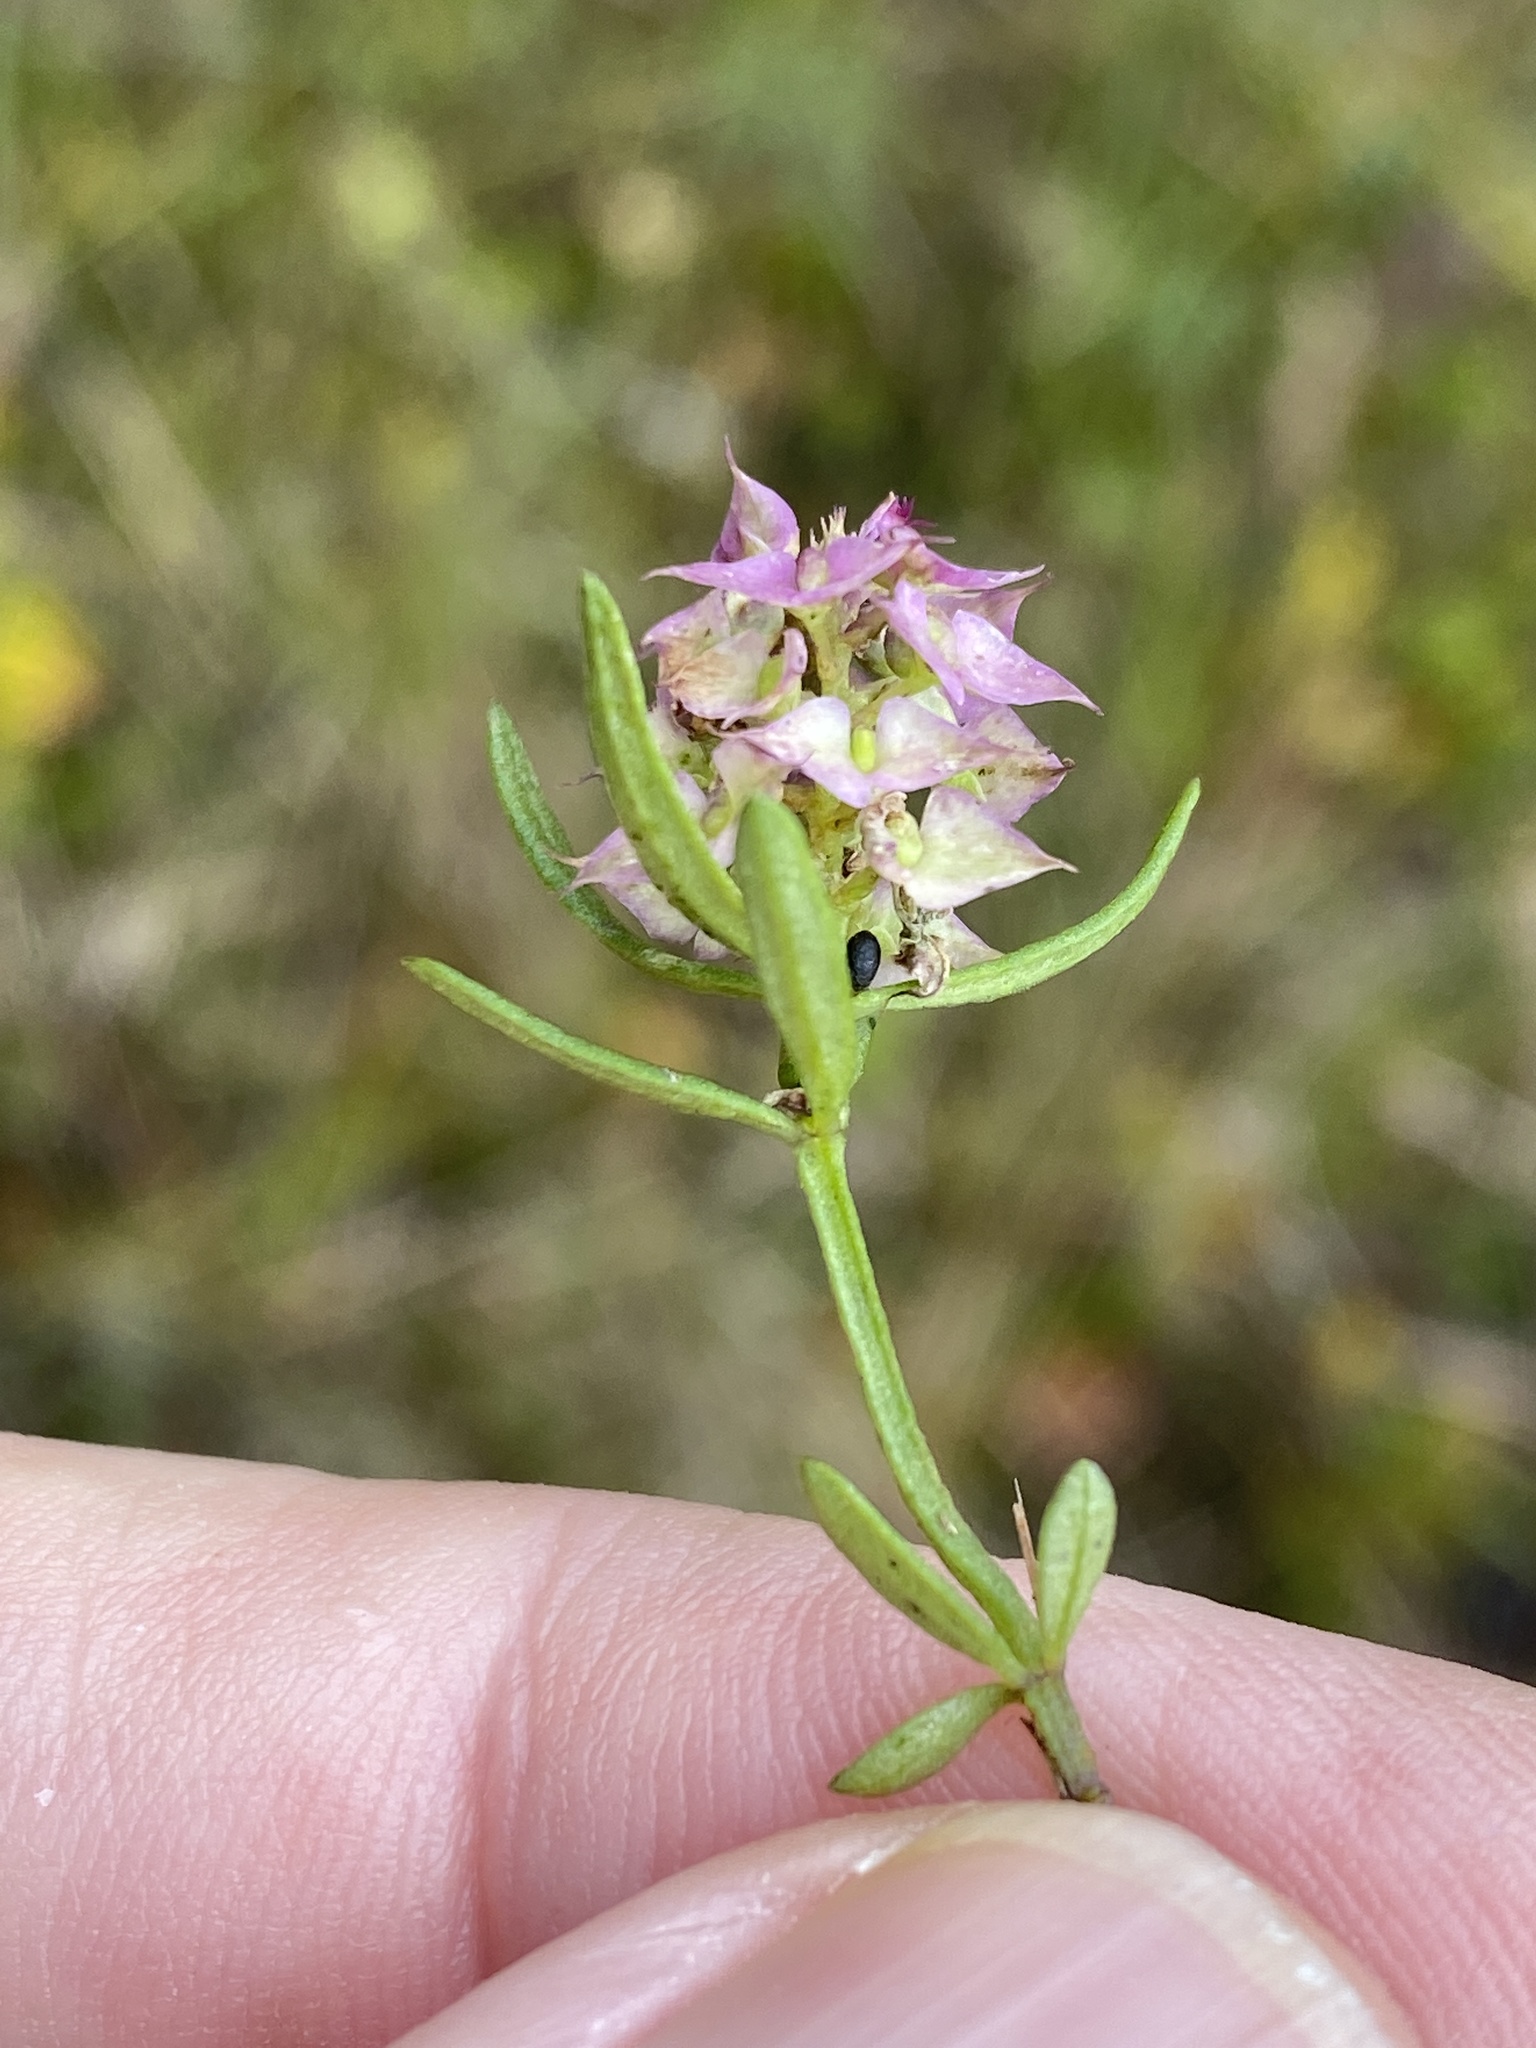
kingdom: Plantae
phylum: Tracheophyta
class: Magnoliopsida
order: Fabales
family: Polygalaceae
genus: Polygala
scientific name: Polygala cruciata
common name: Drumheads
